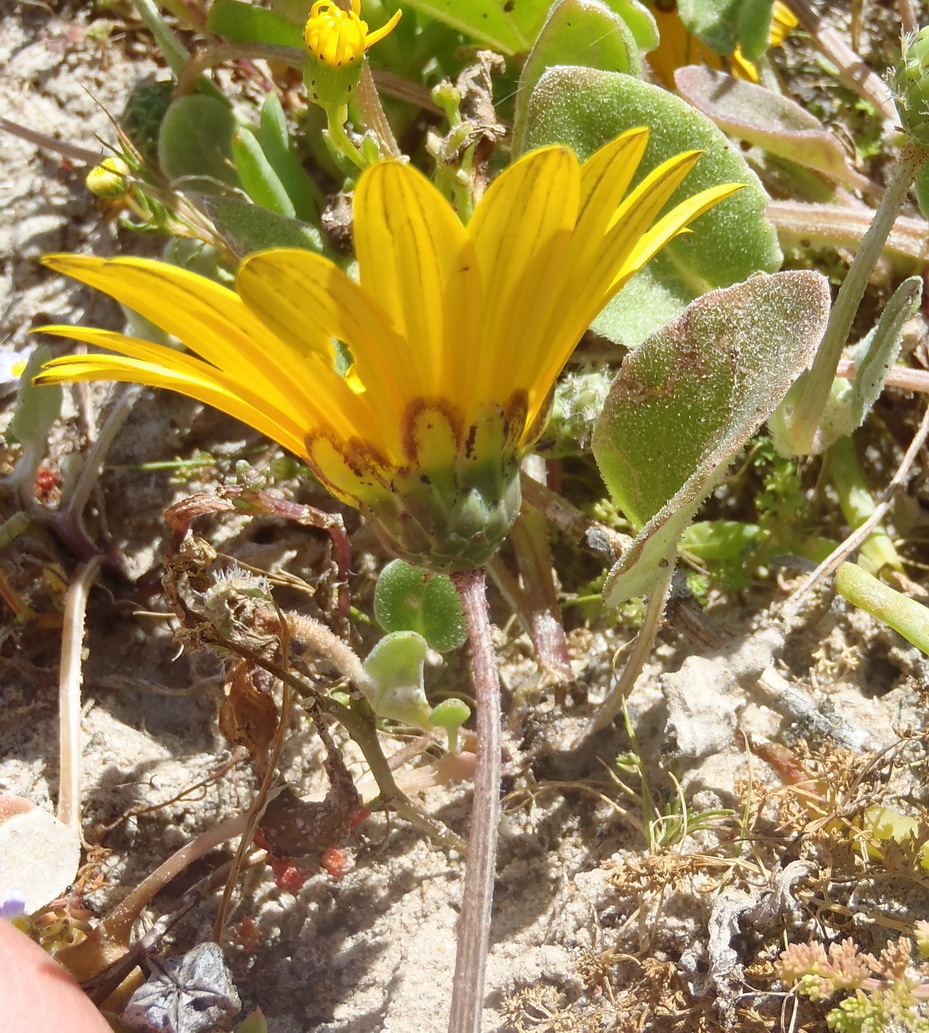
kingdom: Plantae
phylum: Tracheophyta
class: Magnoliopsida
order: Asterales
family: Asteraceae
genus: Arctotheca
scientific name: Arctotheca calendula
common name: Capeweed
